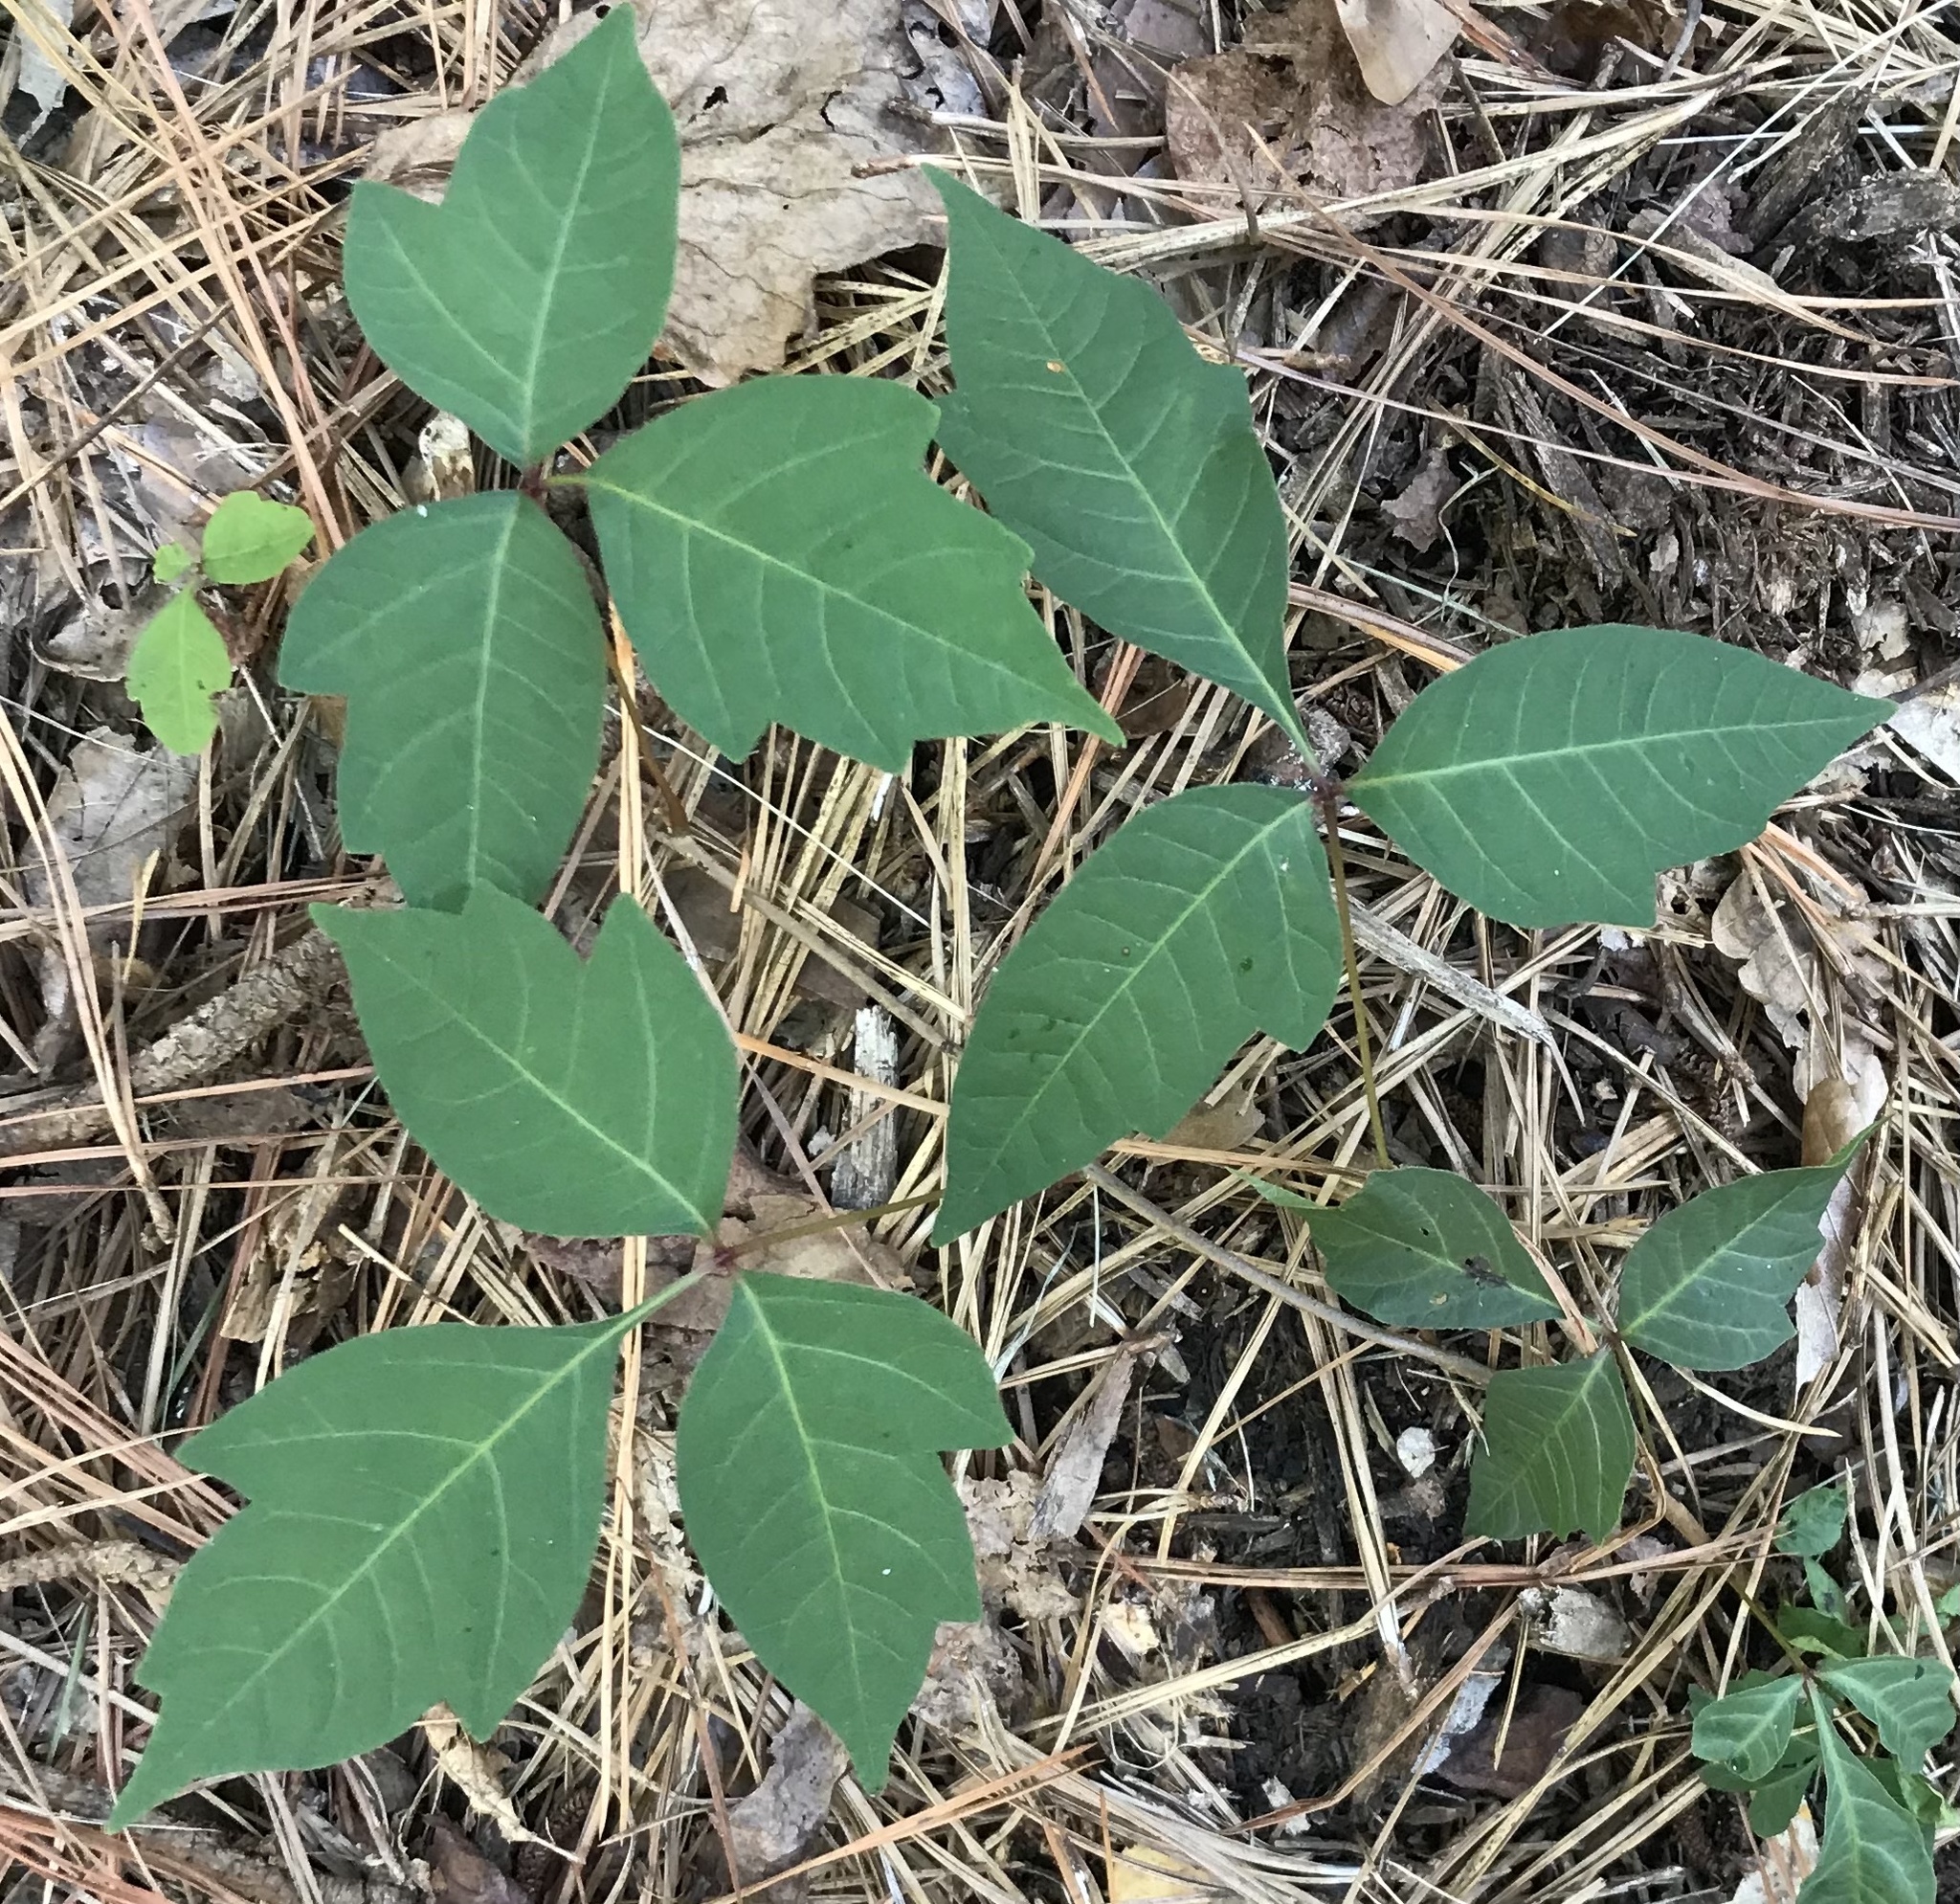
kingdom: Plantae
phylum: Tracheophyta
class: Magnoliopsida
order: Sapindales
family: Anacardiaceae
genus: Toxicodendron
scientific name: Toxicodendron radicans
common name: Poison ivy
